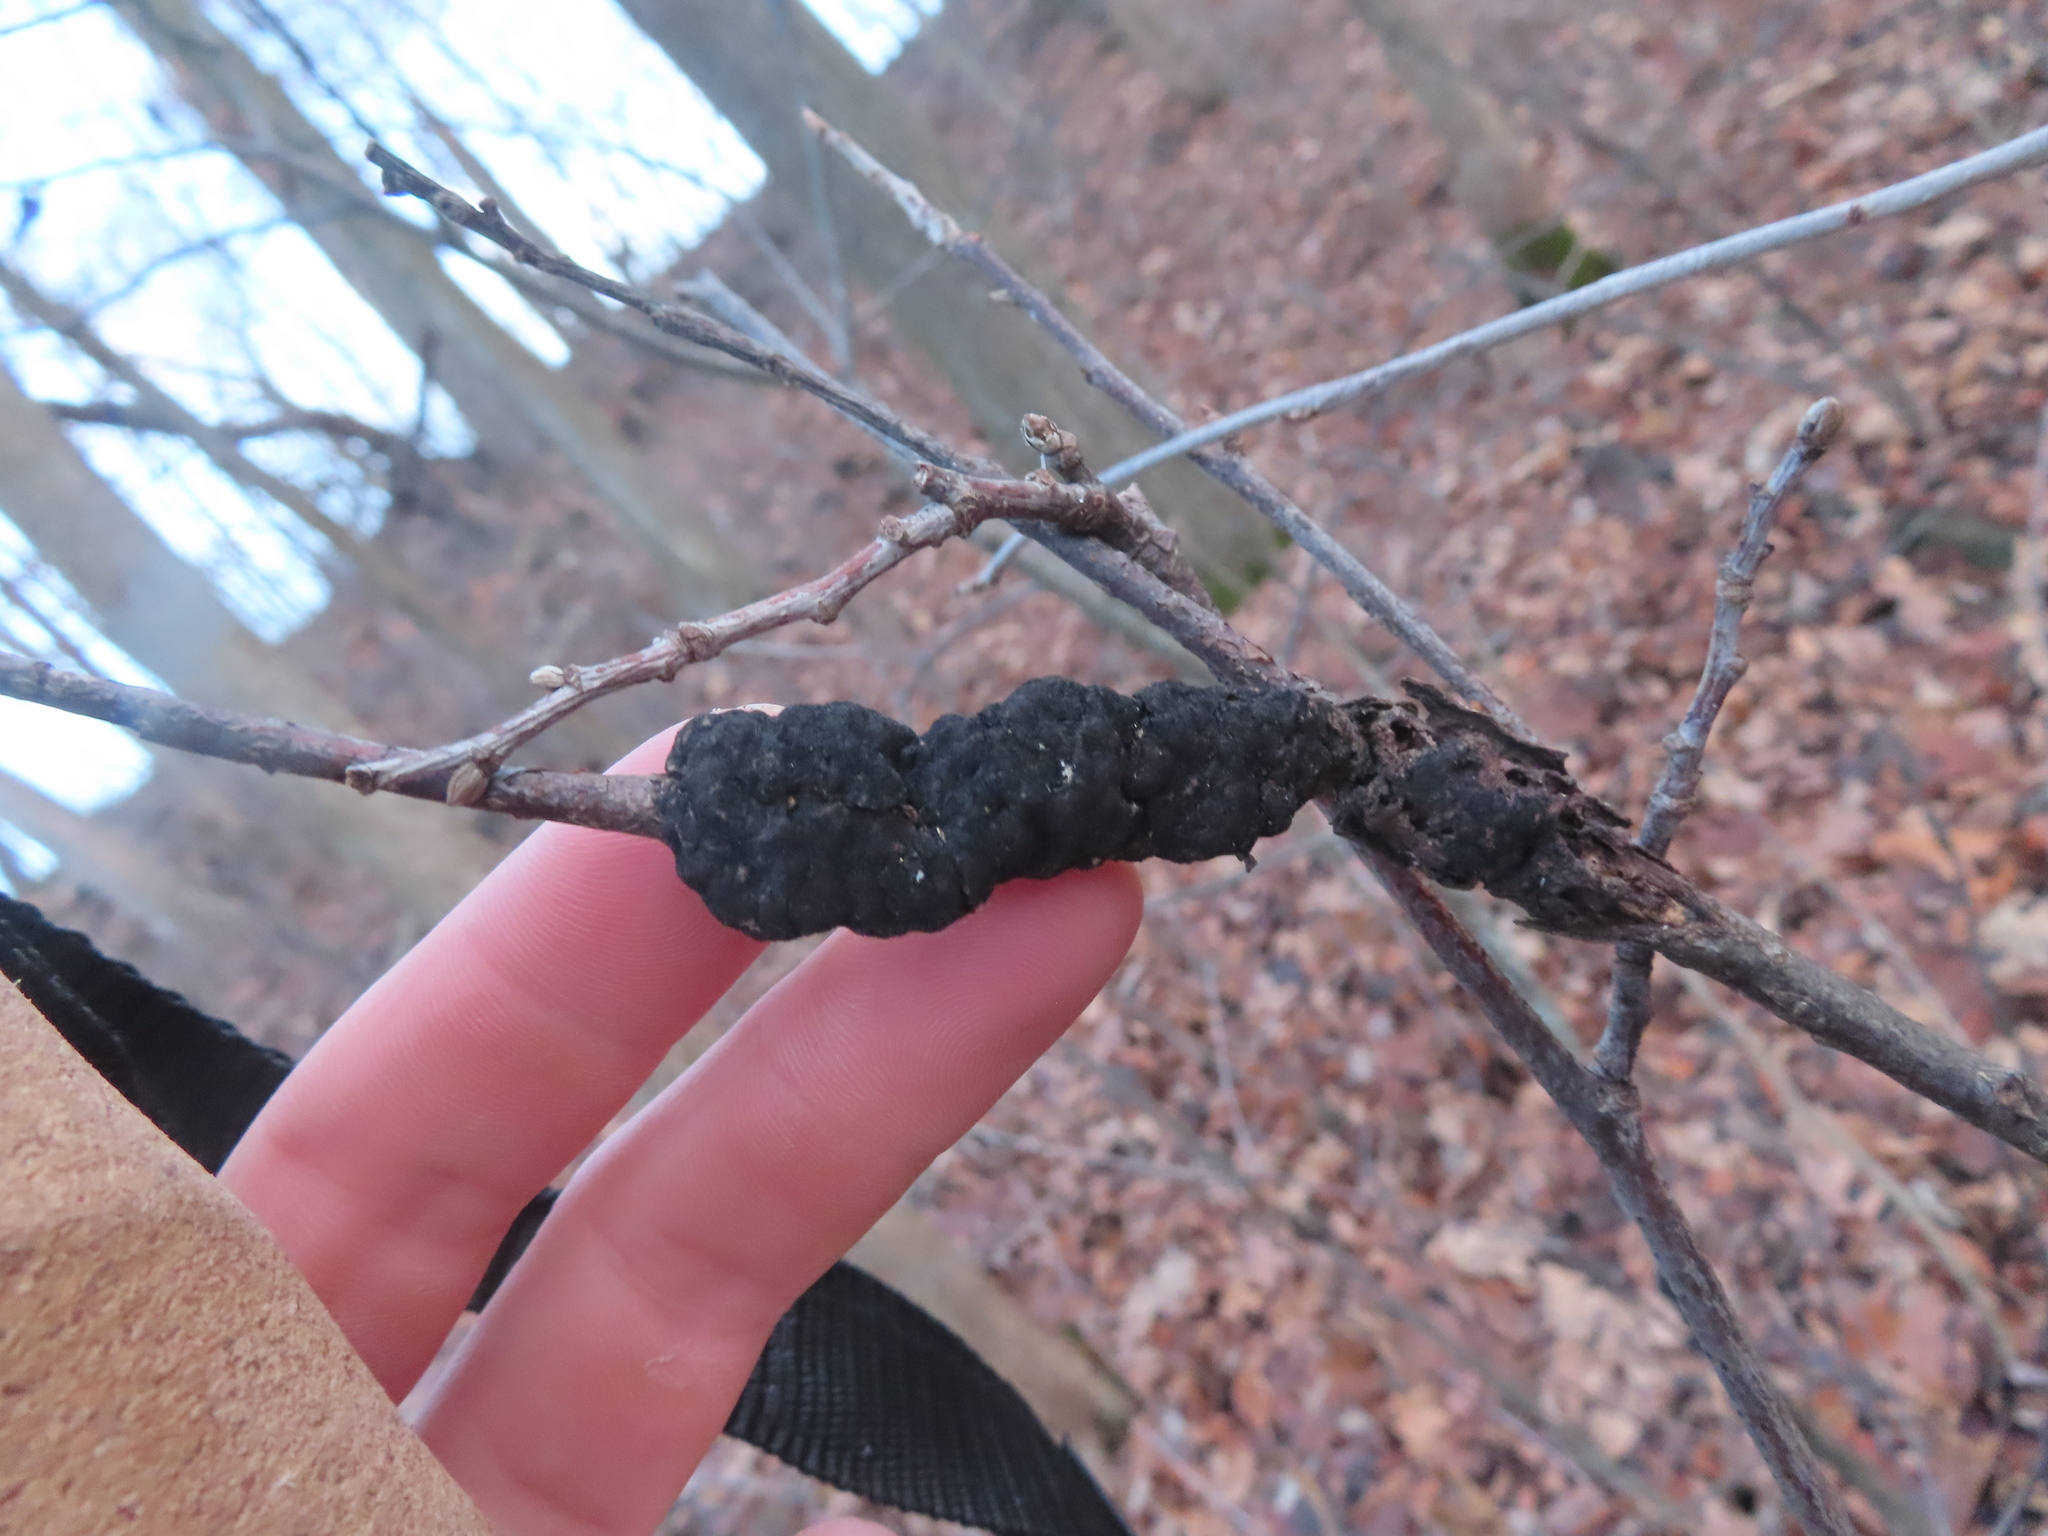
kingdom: Fungi
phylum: Ascomycota
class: Dothideomycetes
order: Venturiales
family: Venturiaceae
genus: Apiosporina
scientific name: Apiosporina morbosa
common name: Black knot
